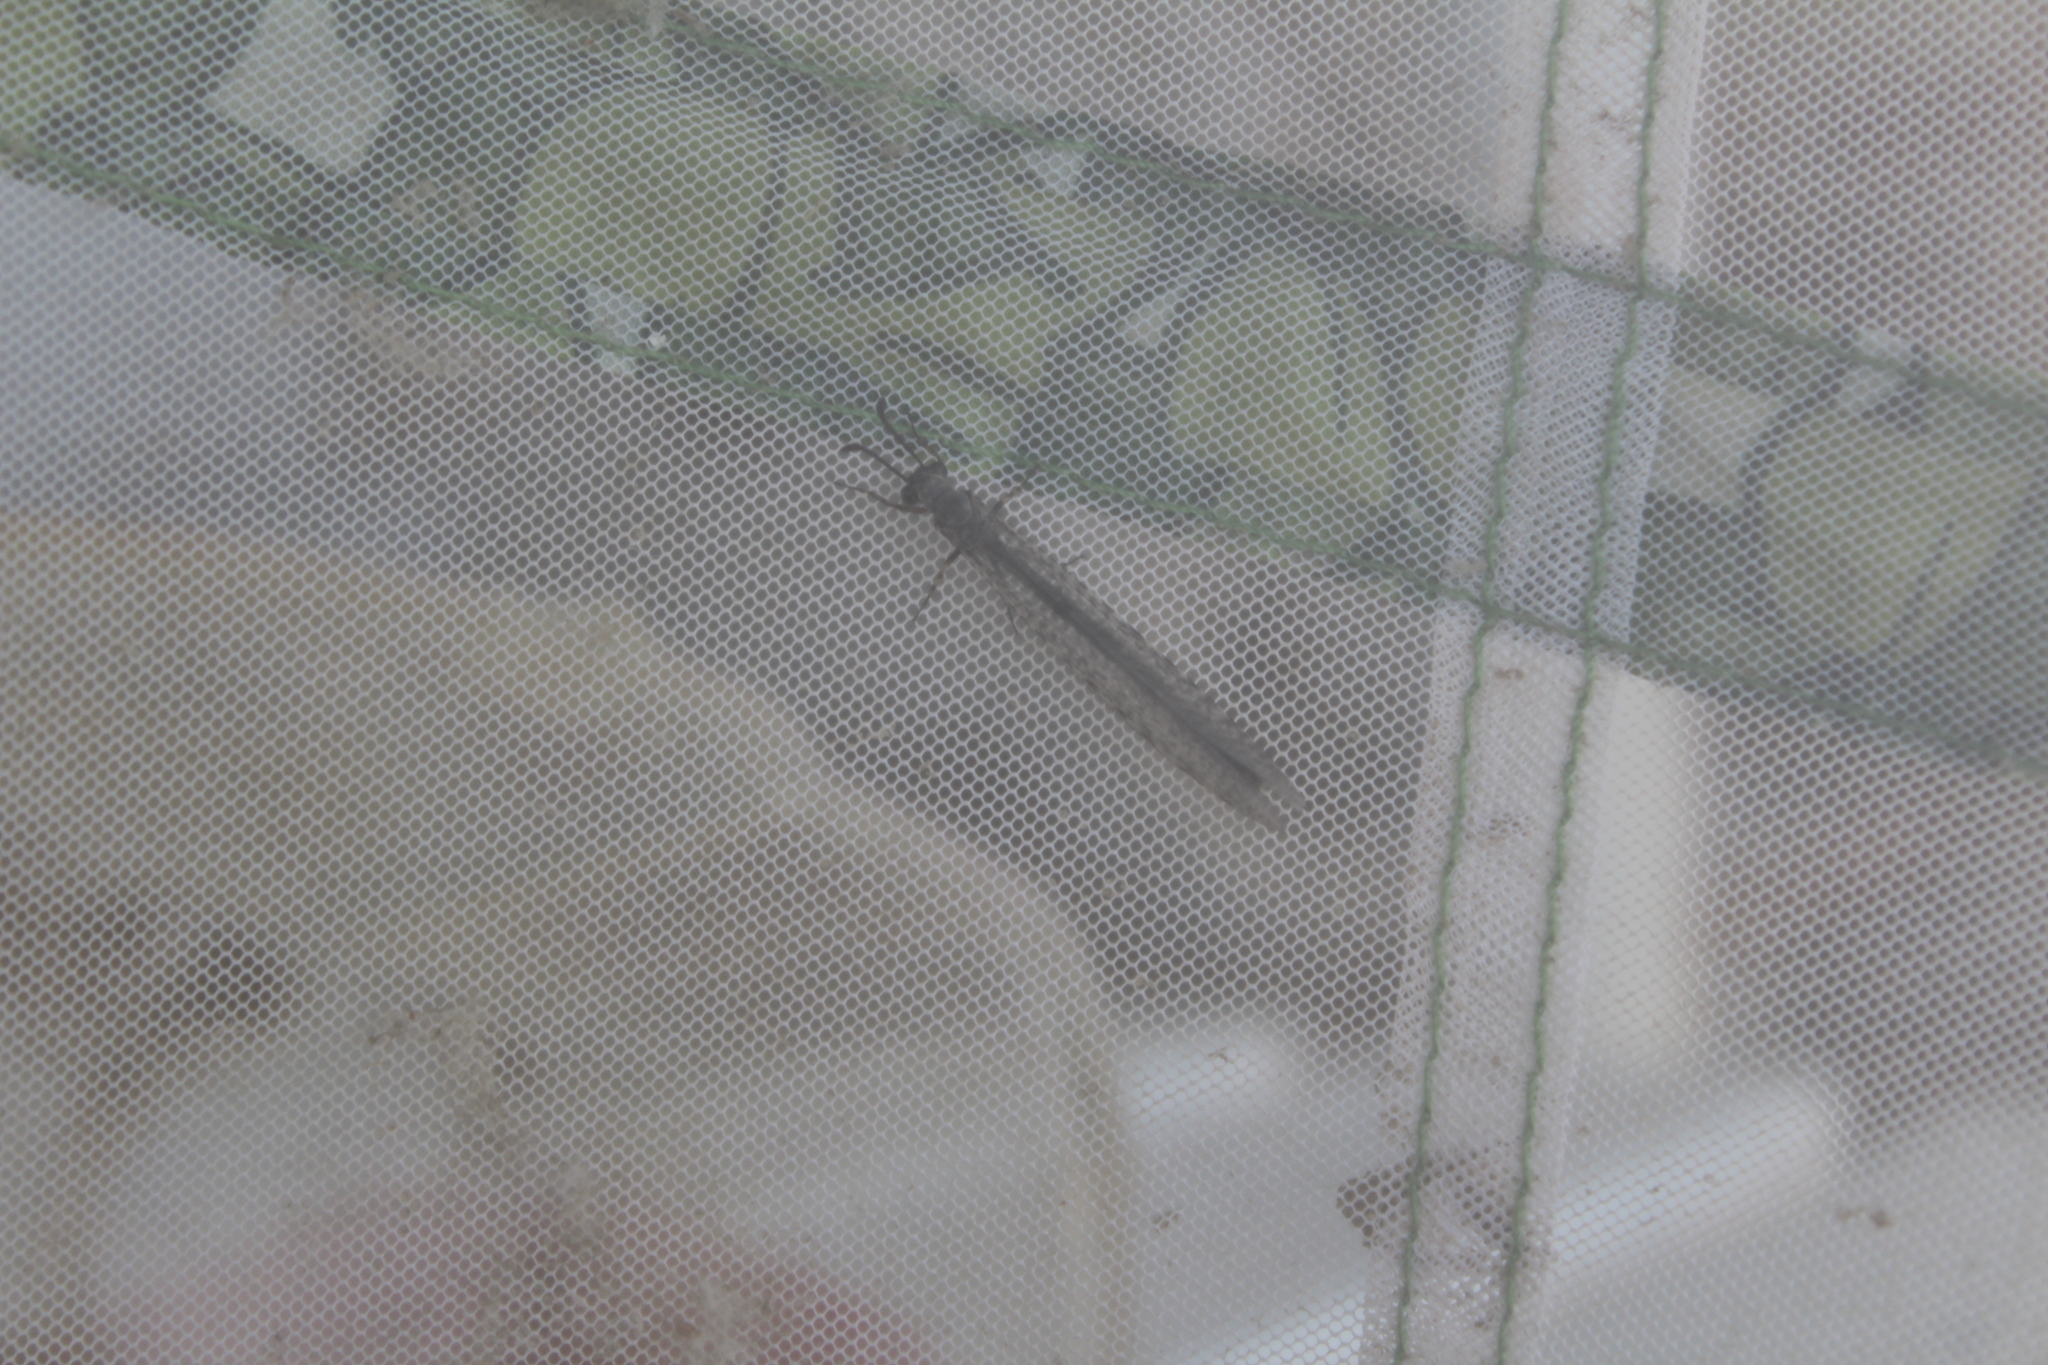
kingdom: Animalia
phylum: Arthropoda
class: Insecta
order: Neuroptera
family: Myrmeleontidae
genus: Myrmeleon
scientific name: Myrmeleon exitialis
